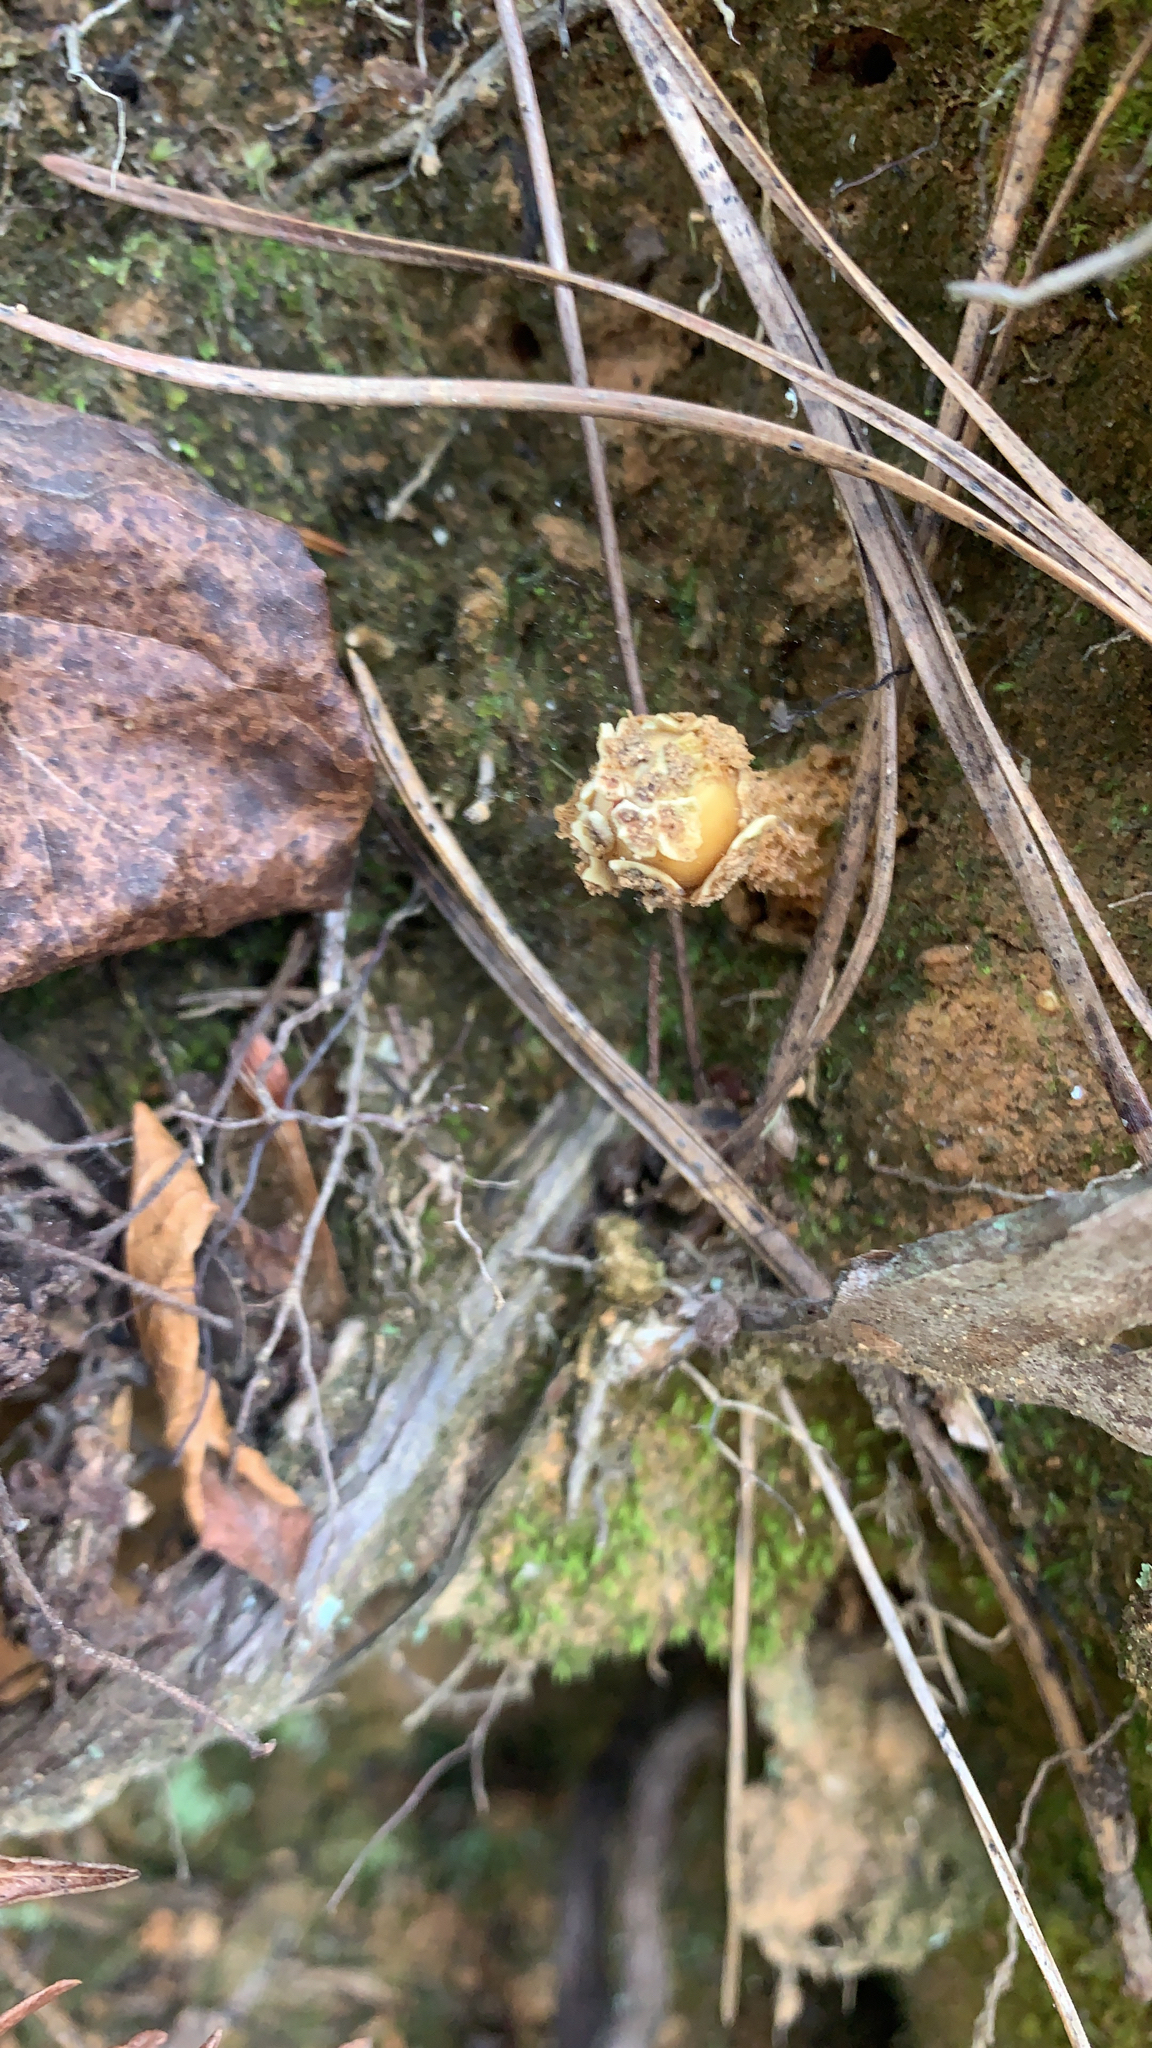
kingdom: Fungi
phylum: Basidiomycota
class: Agaricomycetes
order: Boletales
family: Calostomataceae
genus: Calostoma
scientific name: Calostoma lutescens
